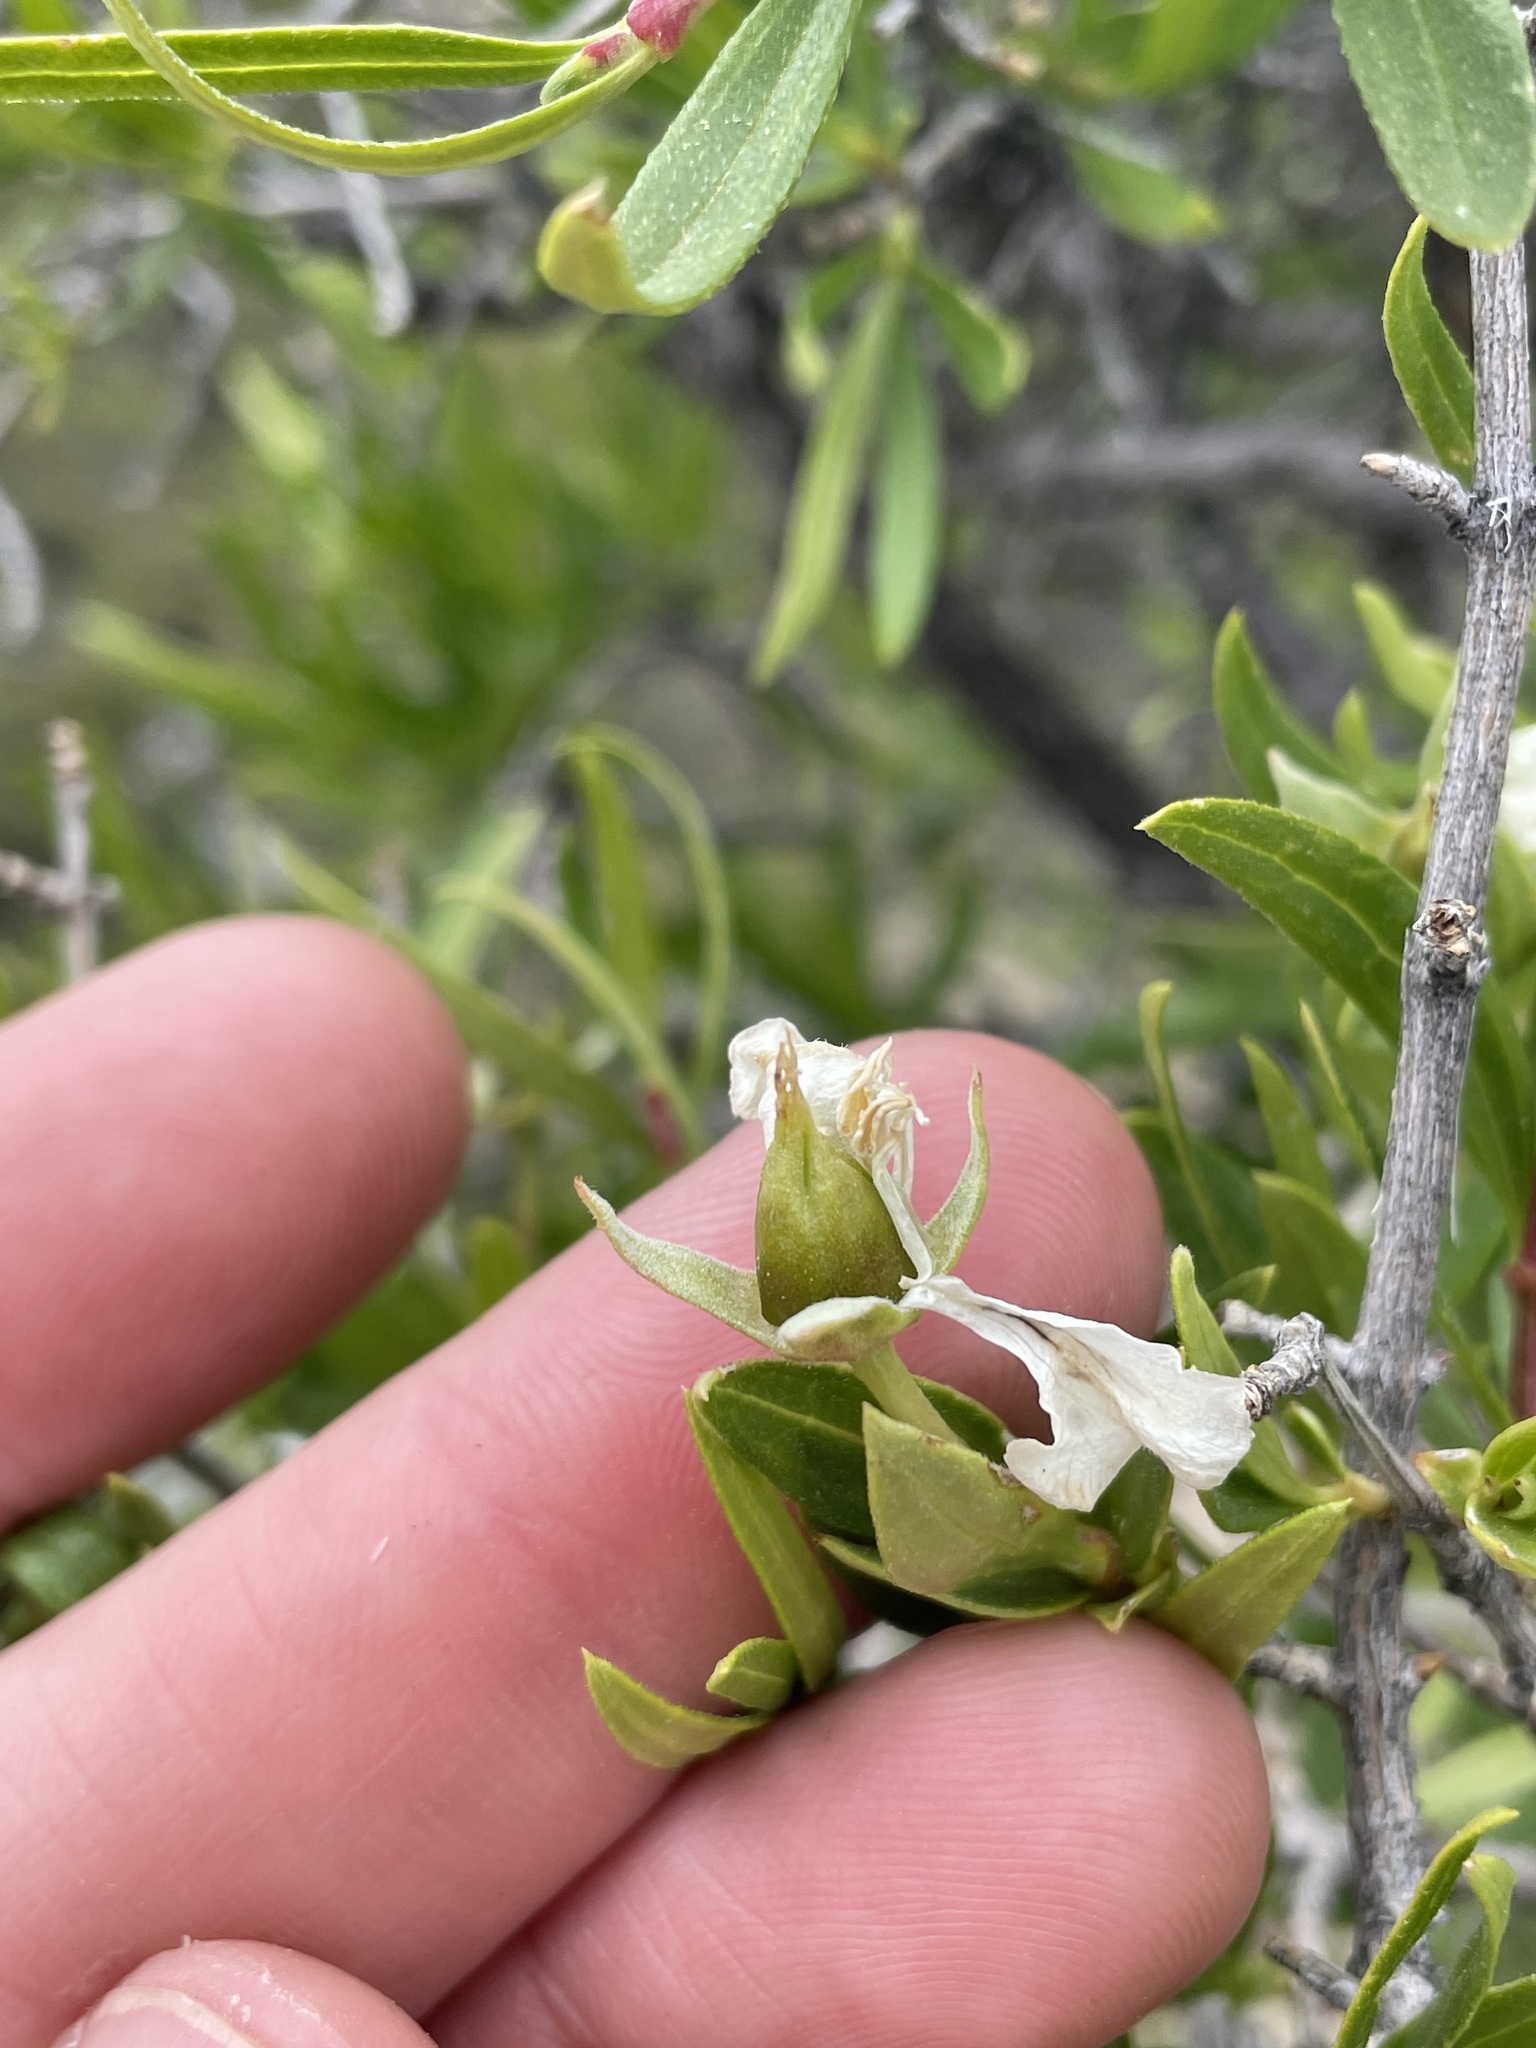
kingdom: Plantae
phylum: Tracheophyta
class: Magnoliopsida
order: Cornales
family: Hydrangeaceae
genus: Fendlera
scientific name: Fendlera rupicola
